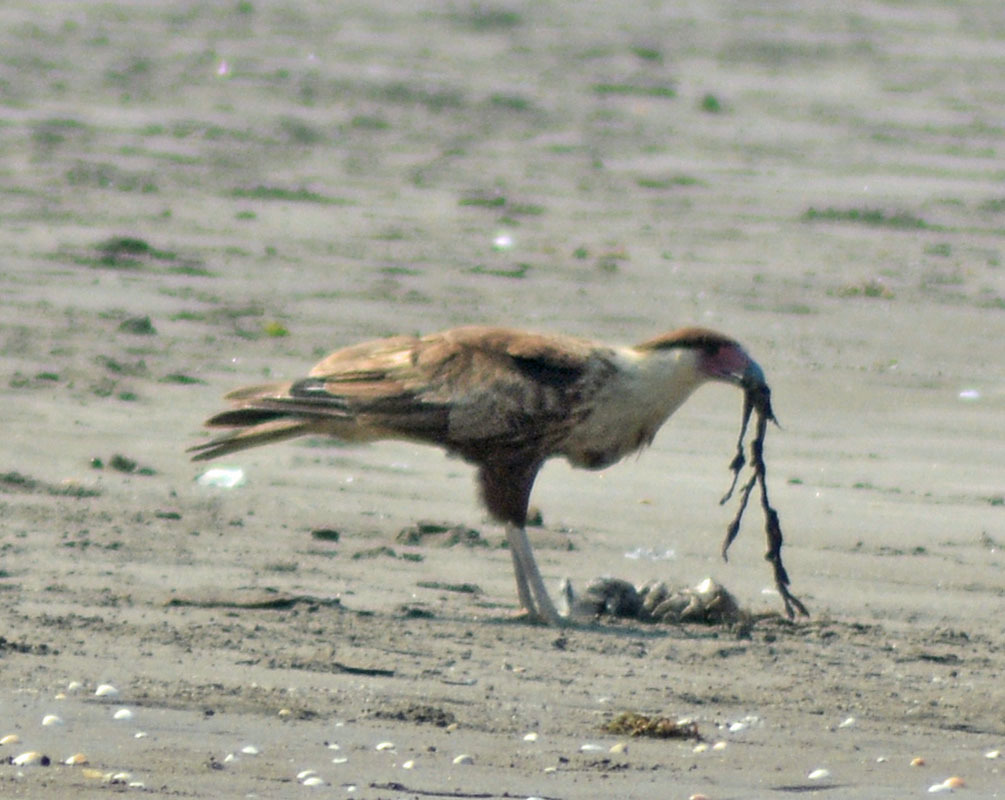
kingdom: Animalia
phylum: Chordata
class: Aves
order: Falconiformes
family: Falconidae
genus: Caracara
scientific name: Caracara plancus
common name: Southern caracara
